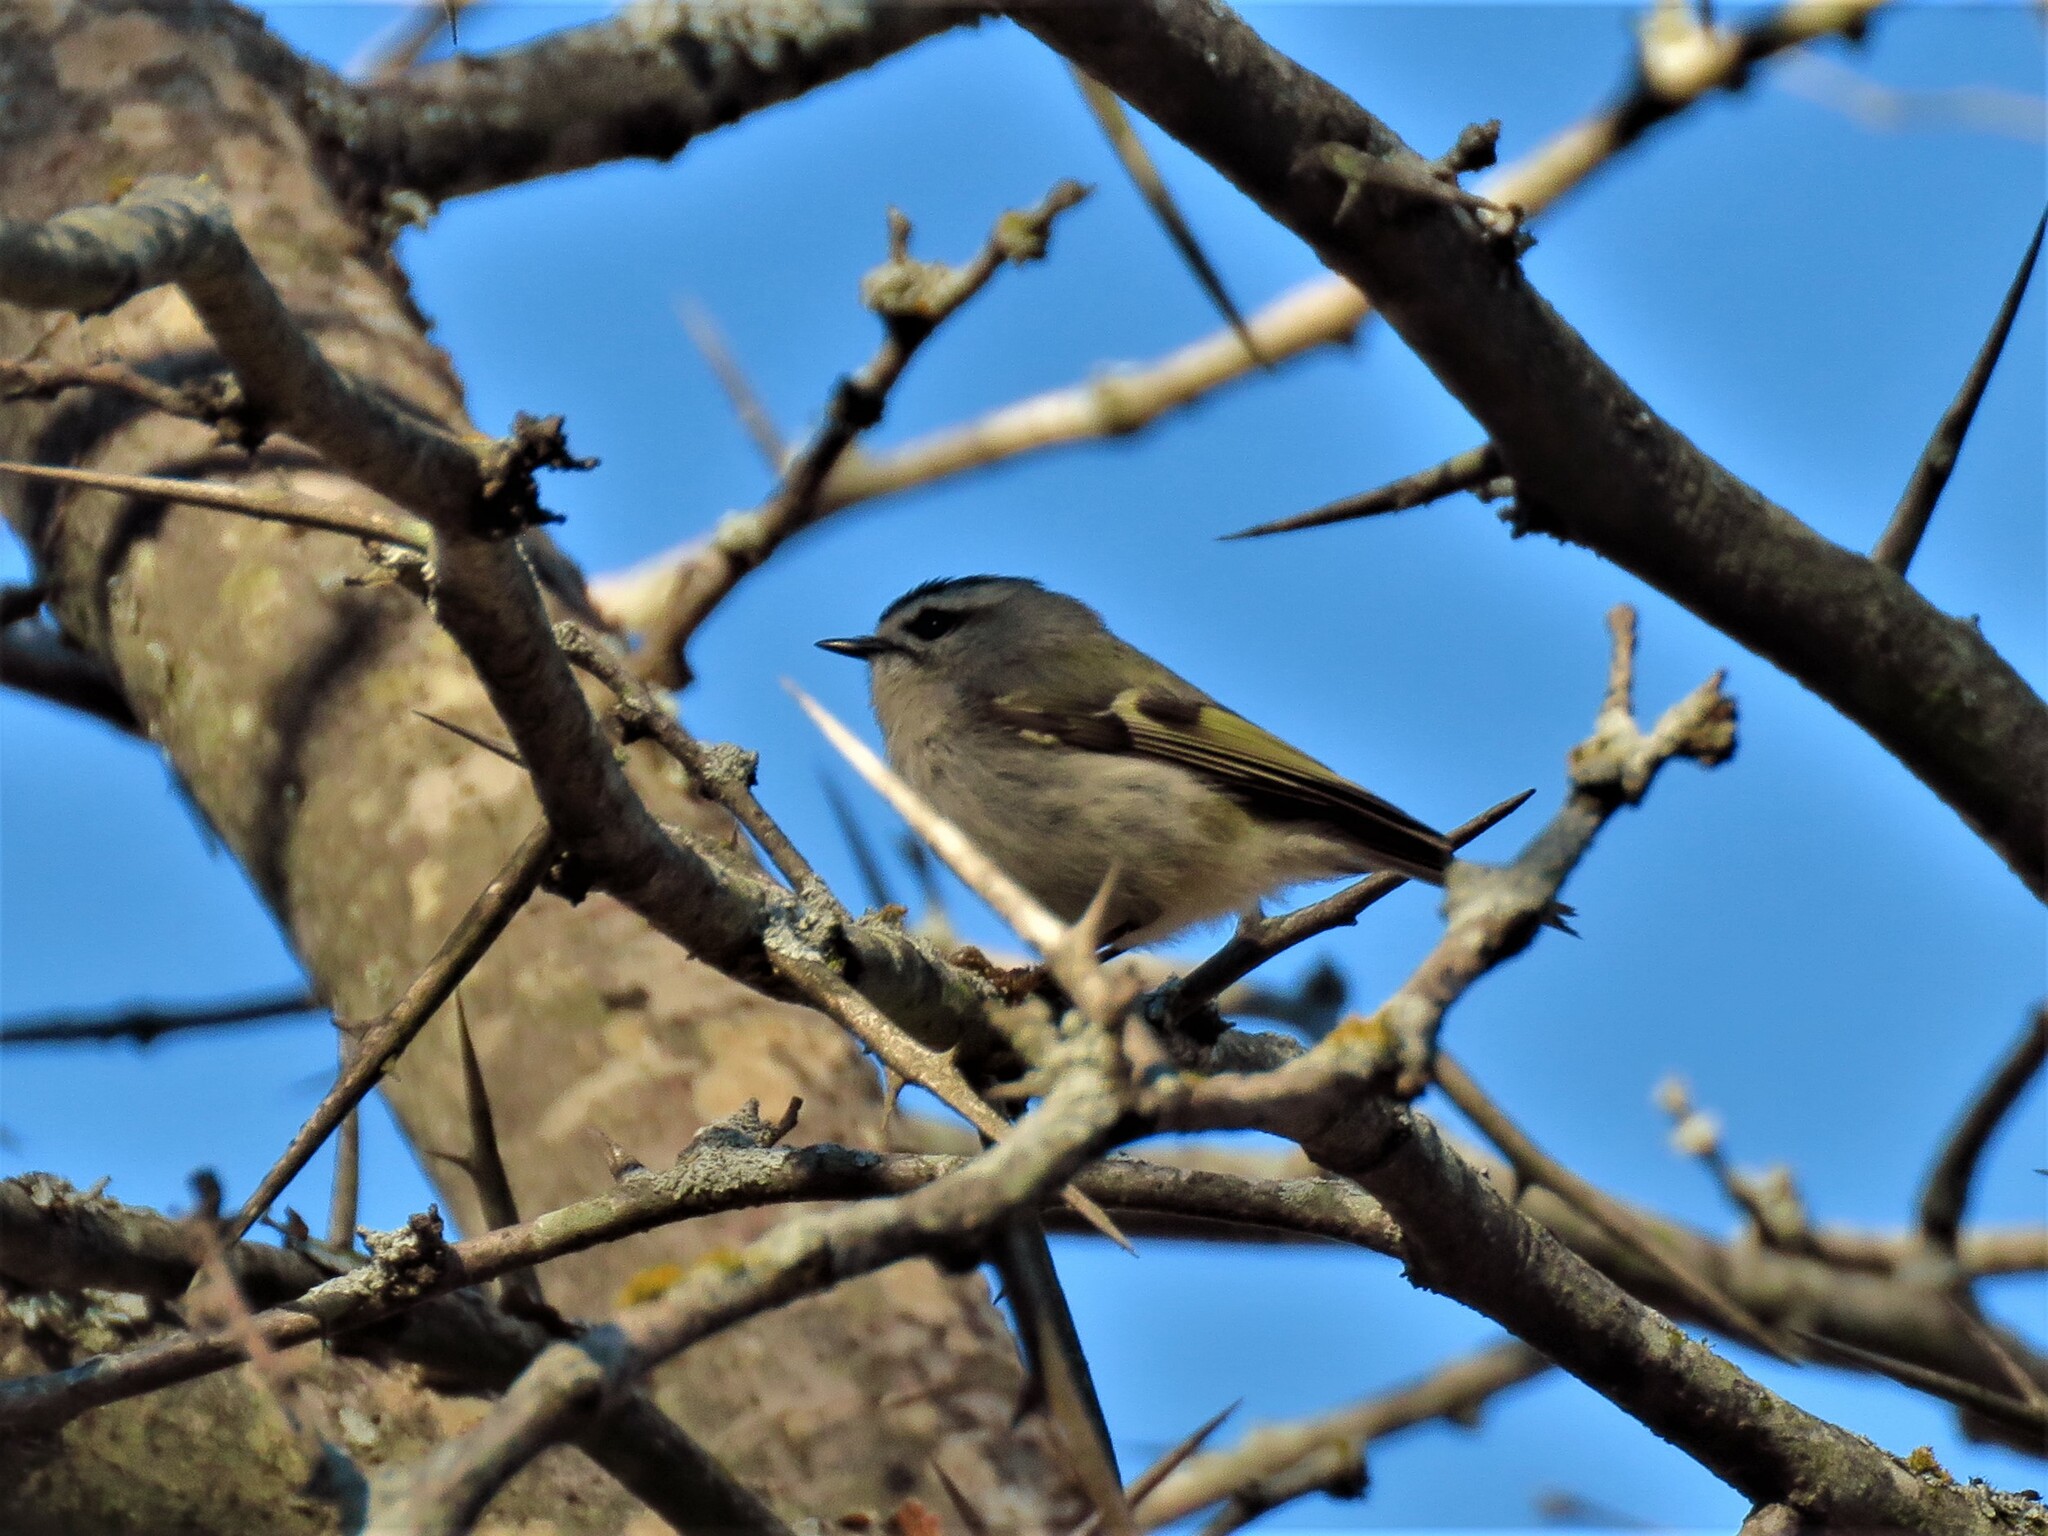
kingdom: Animalia
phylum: Chordata
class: Aves
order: Passeriformes
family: Regulidae
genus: Regulus
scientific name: Regulus satrapa
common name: Golden-crowned kinglet
